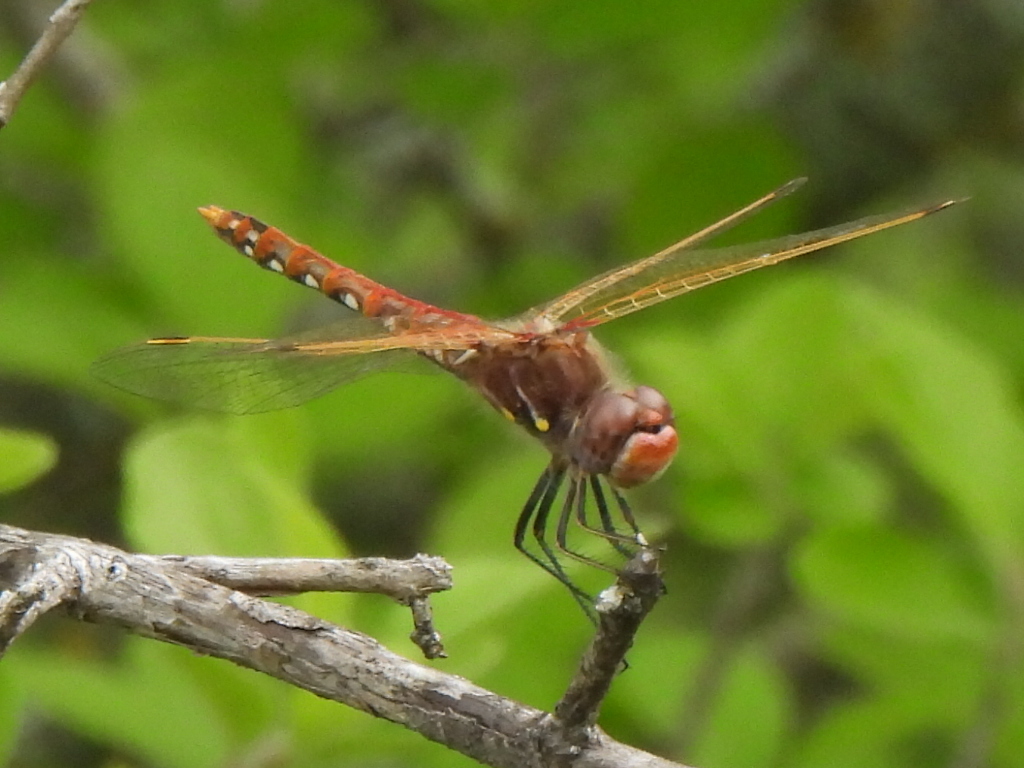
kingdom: Animalia
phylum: Arthropoda
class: Insecta
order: Odonata
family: Libellulidae
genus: Sympetrum
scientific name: Sympetrum corruptum
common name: Variegated meadowhawk
